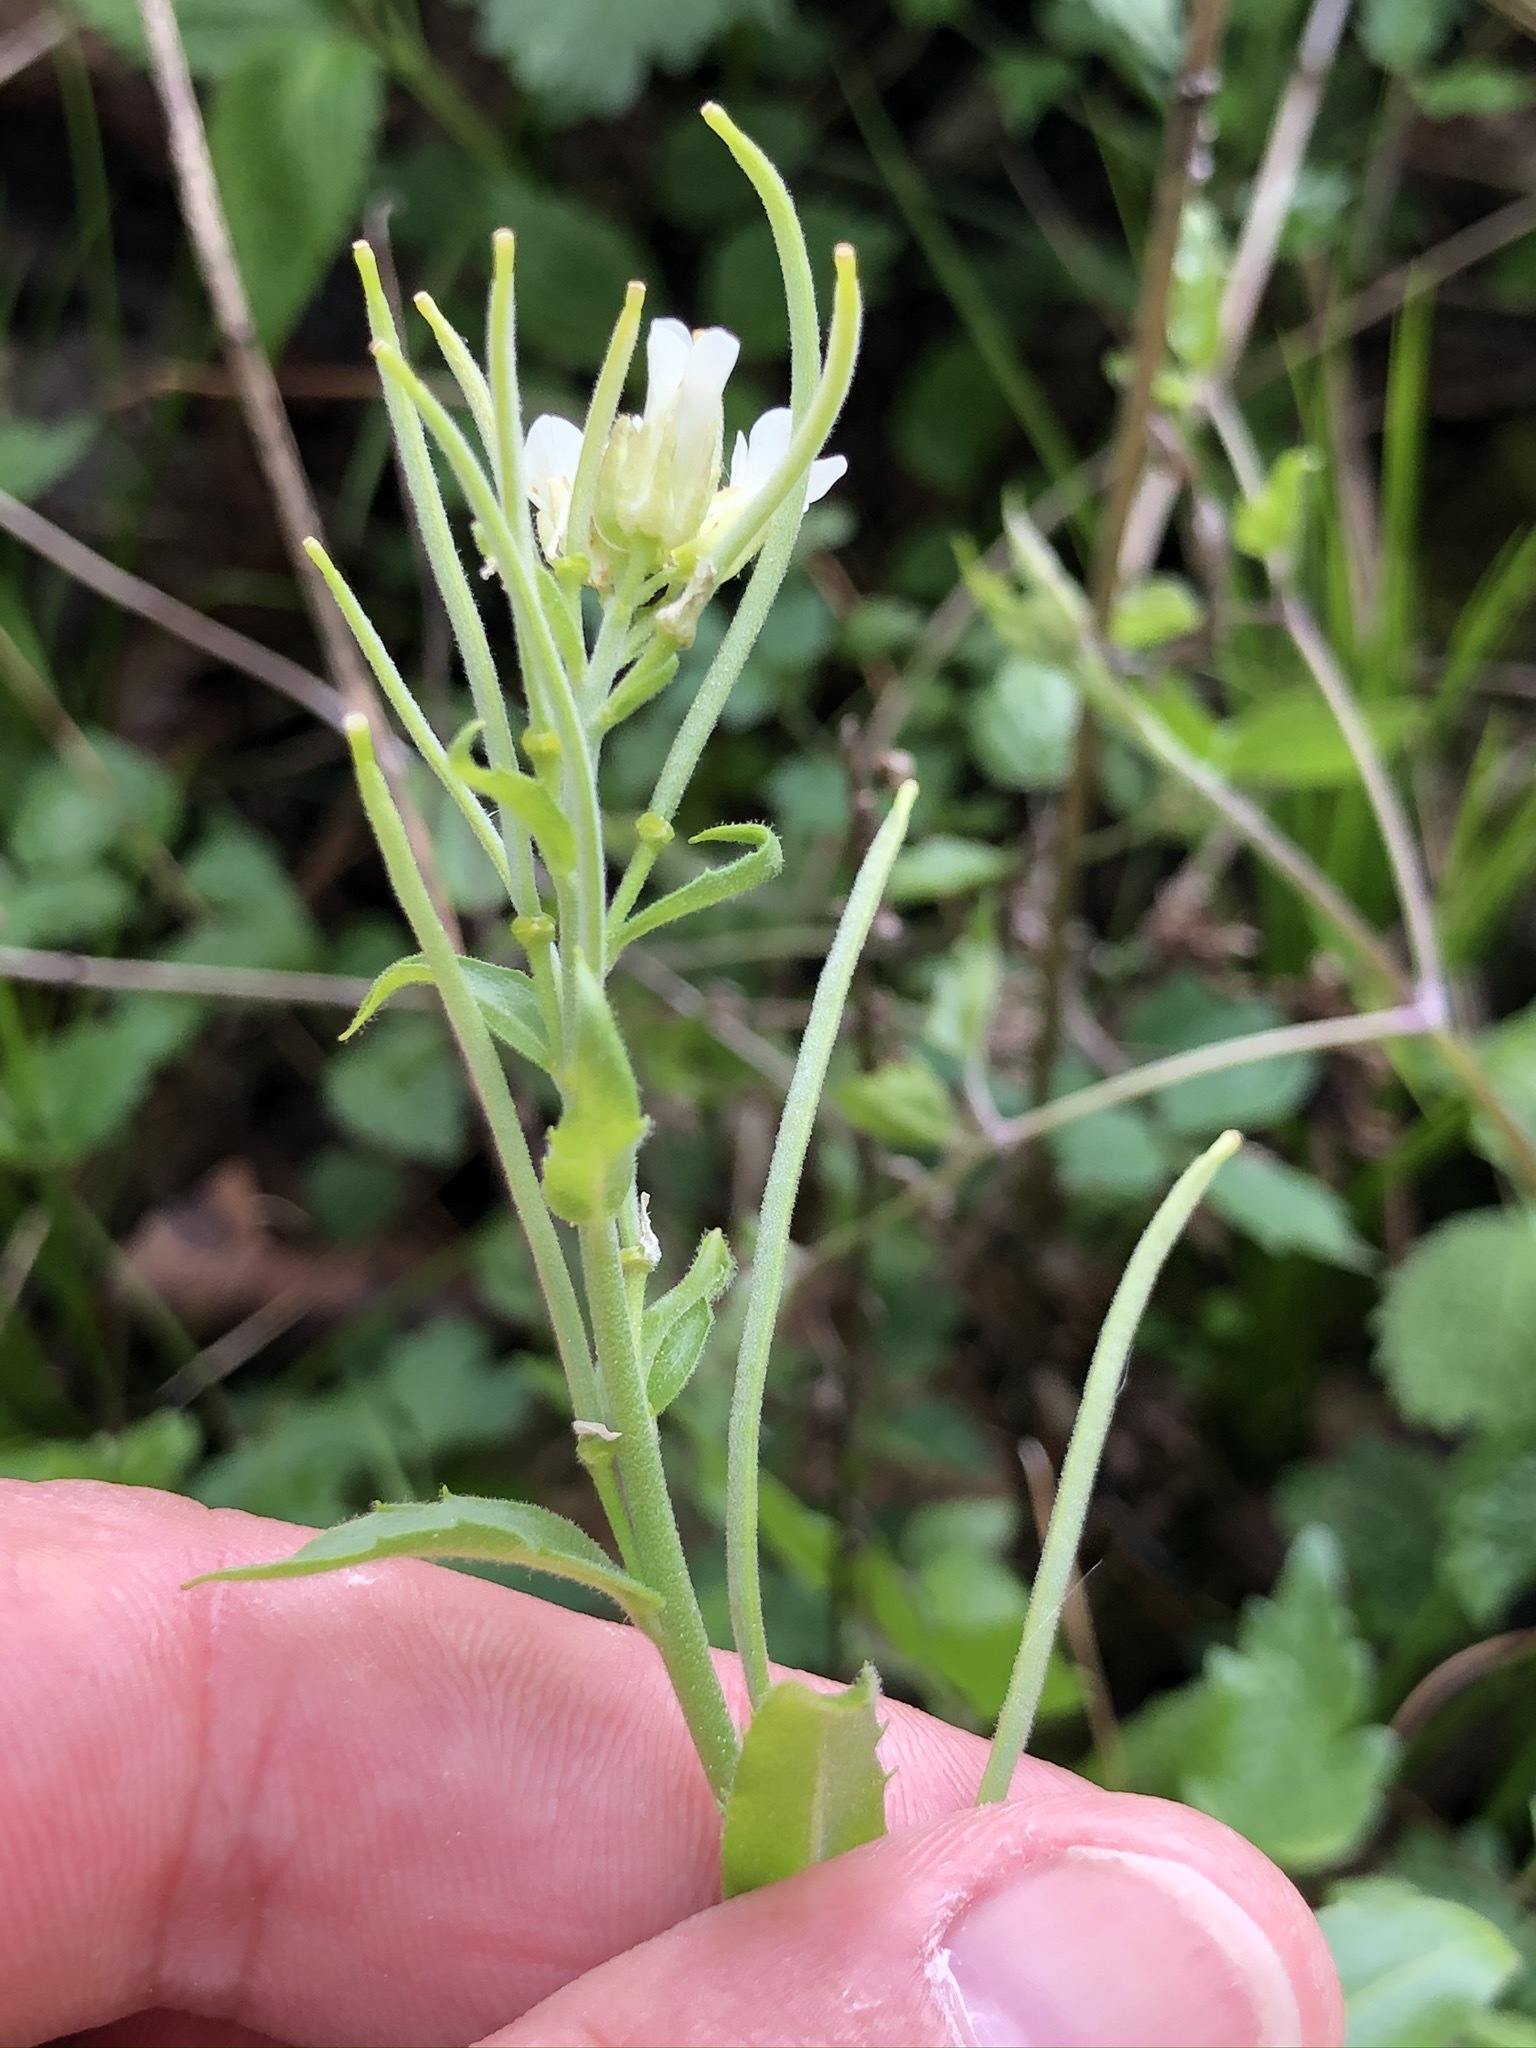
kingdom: Plantae
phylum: Tracheophyta
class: Magnoliopsida
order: Brassicales
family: Brassicaceae
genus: Pseudoturritis
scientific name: Pseudoturritis turrita
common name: Tower cress
